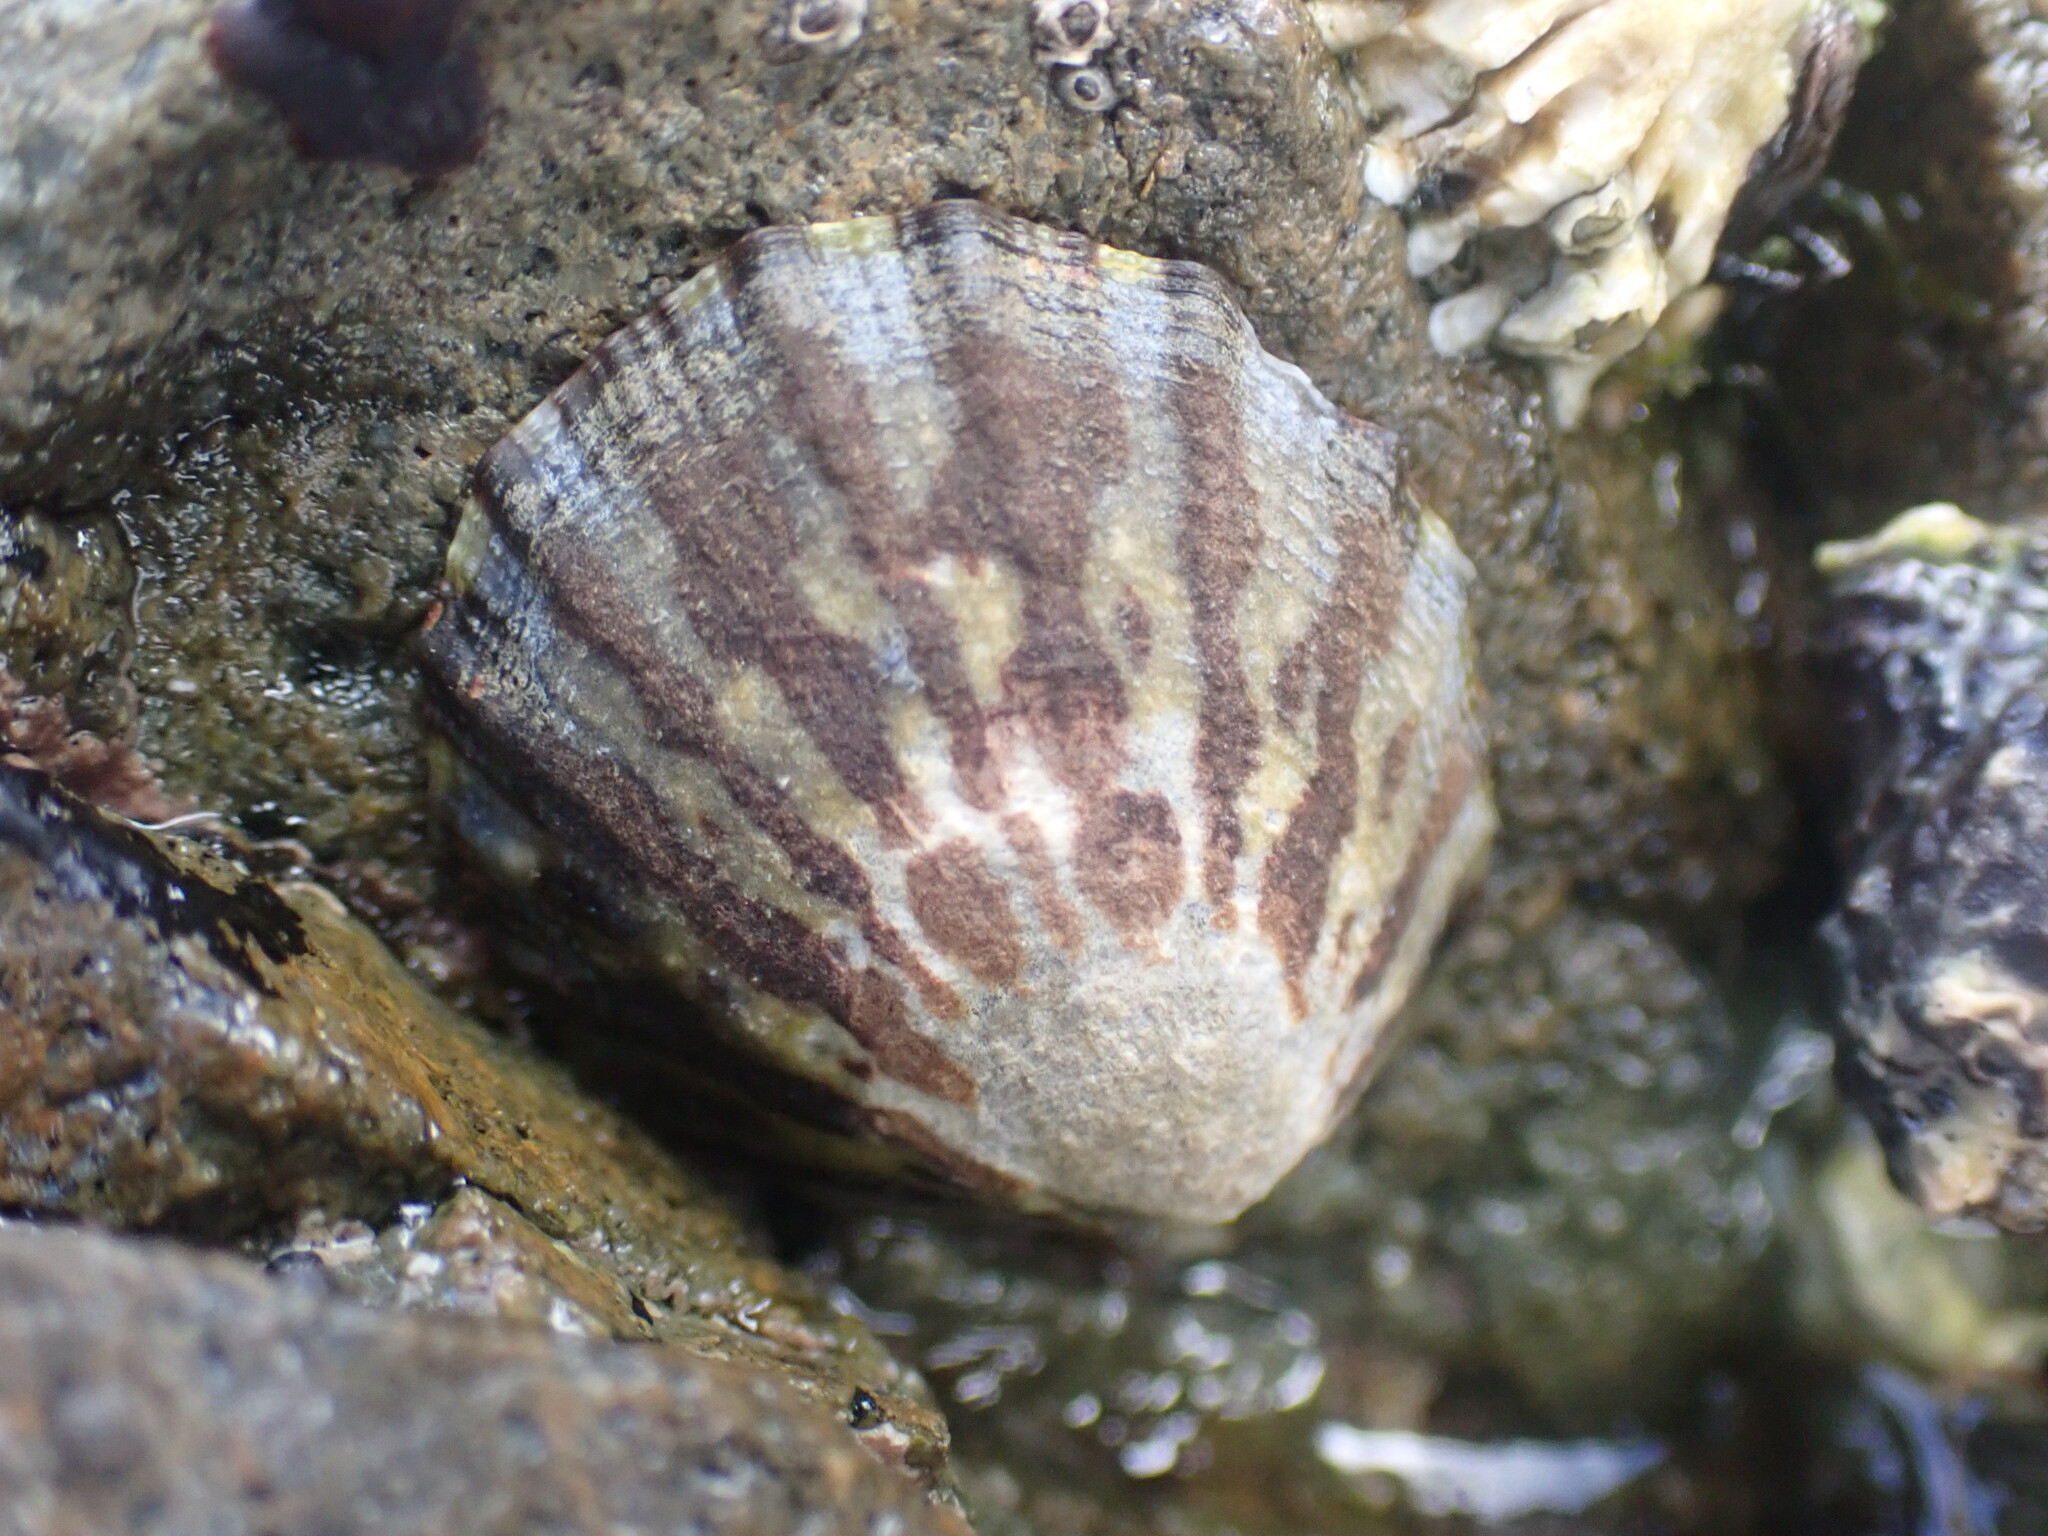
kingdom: Animalia
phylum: Mollusca
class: Gastropoda
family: Nacellidae
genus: Cellana
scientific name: Cellana radians
